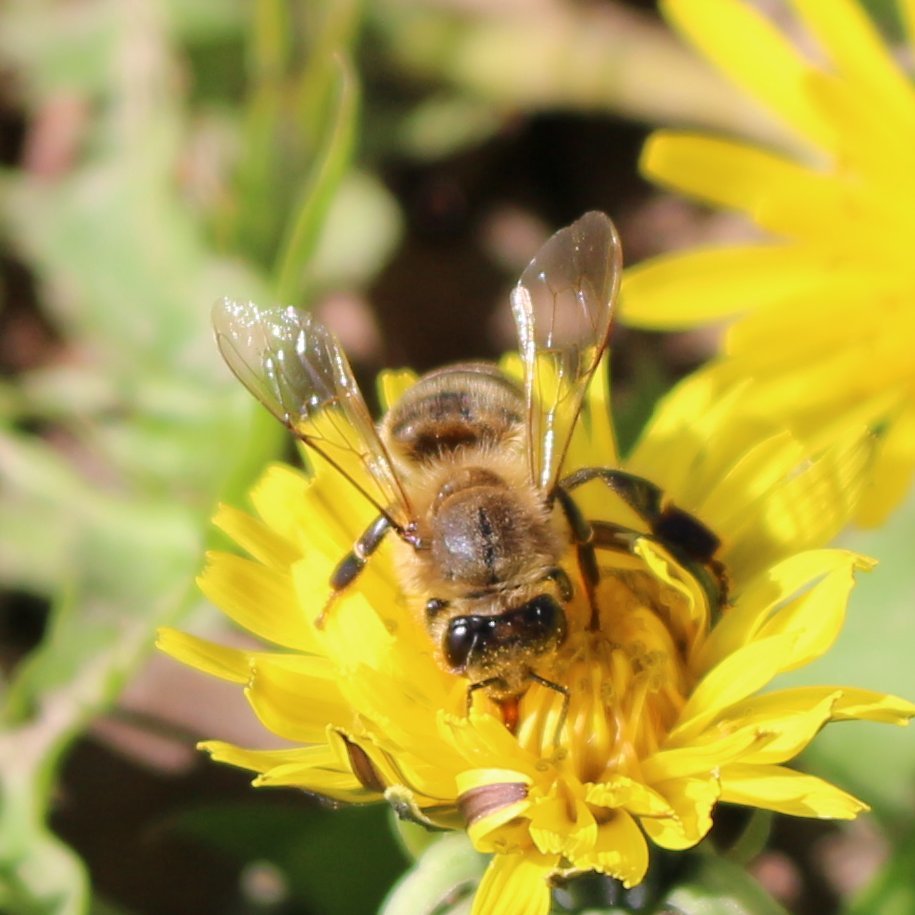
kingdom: Animalia
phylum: Arthropoda
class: Insecta
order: Hymenoptera
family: Apidae
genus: Apis
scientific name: Apis mellifera
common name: Honey bee
